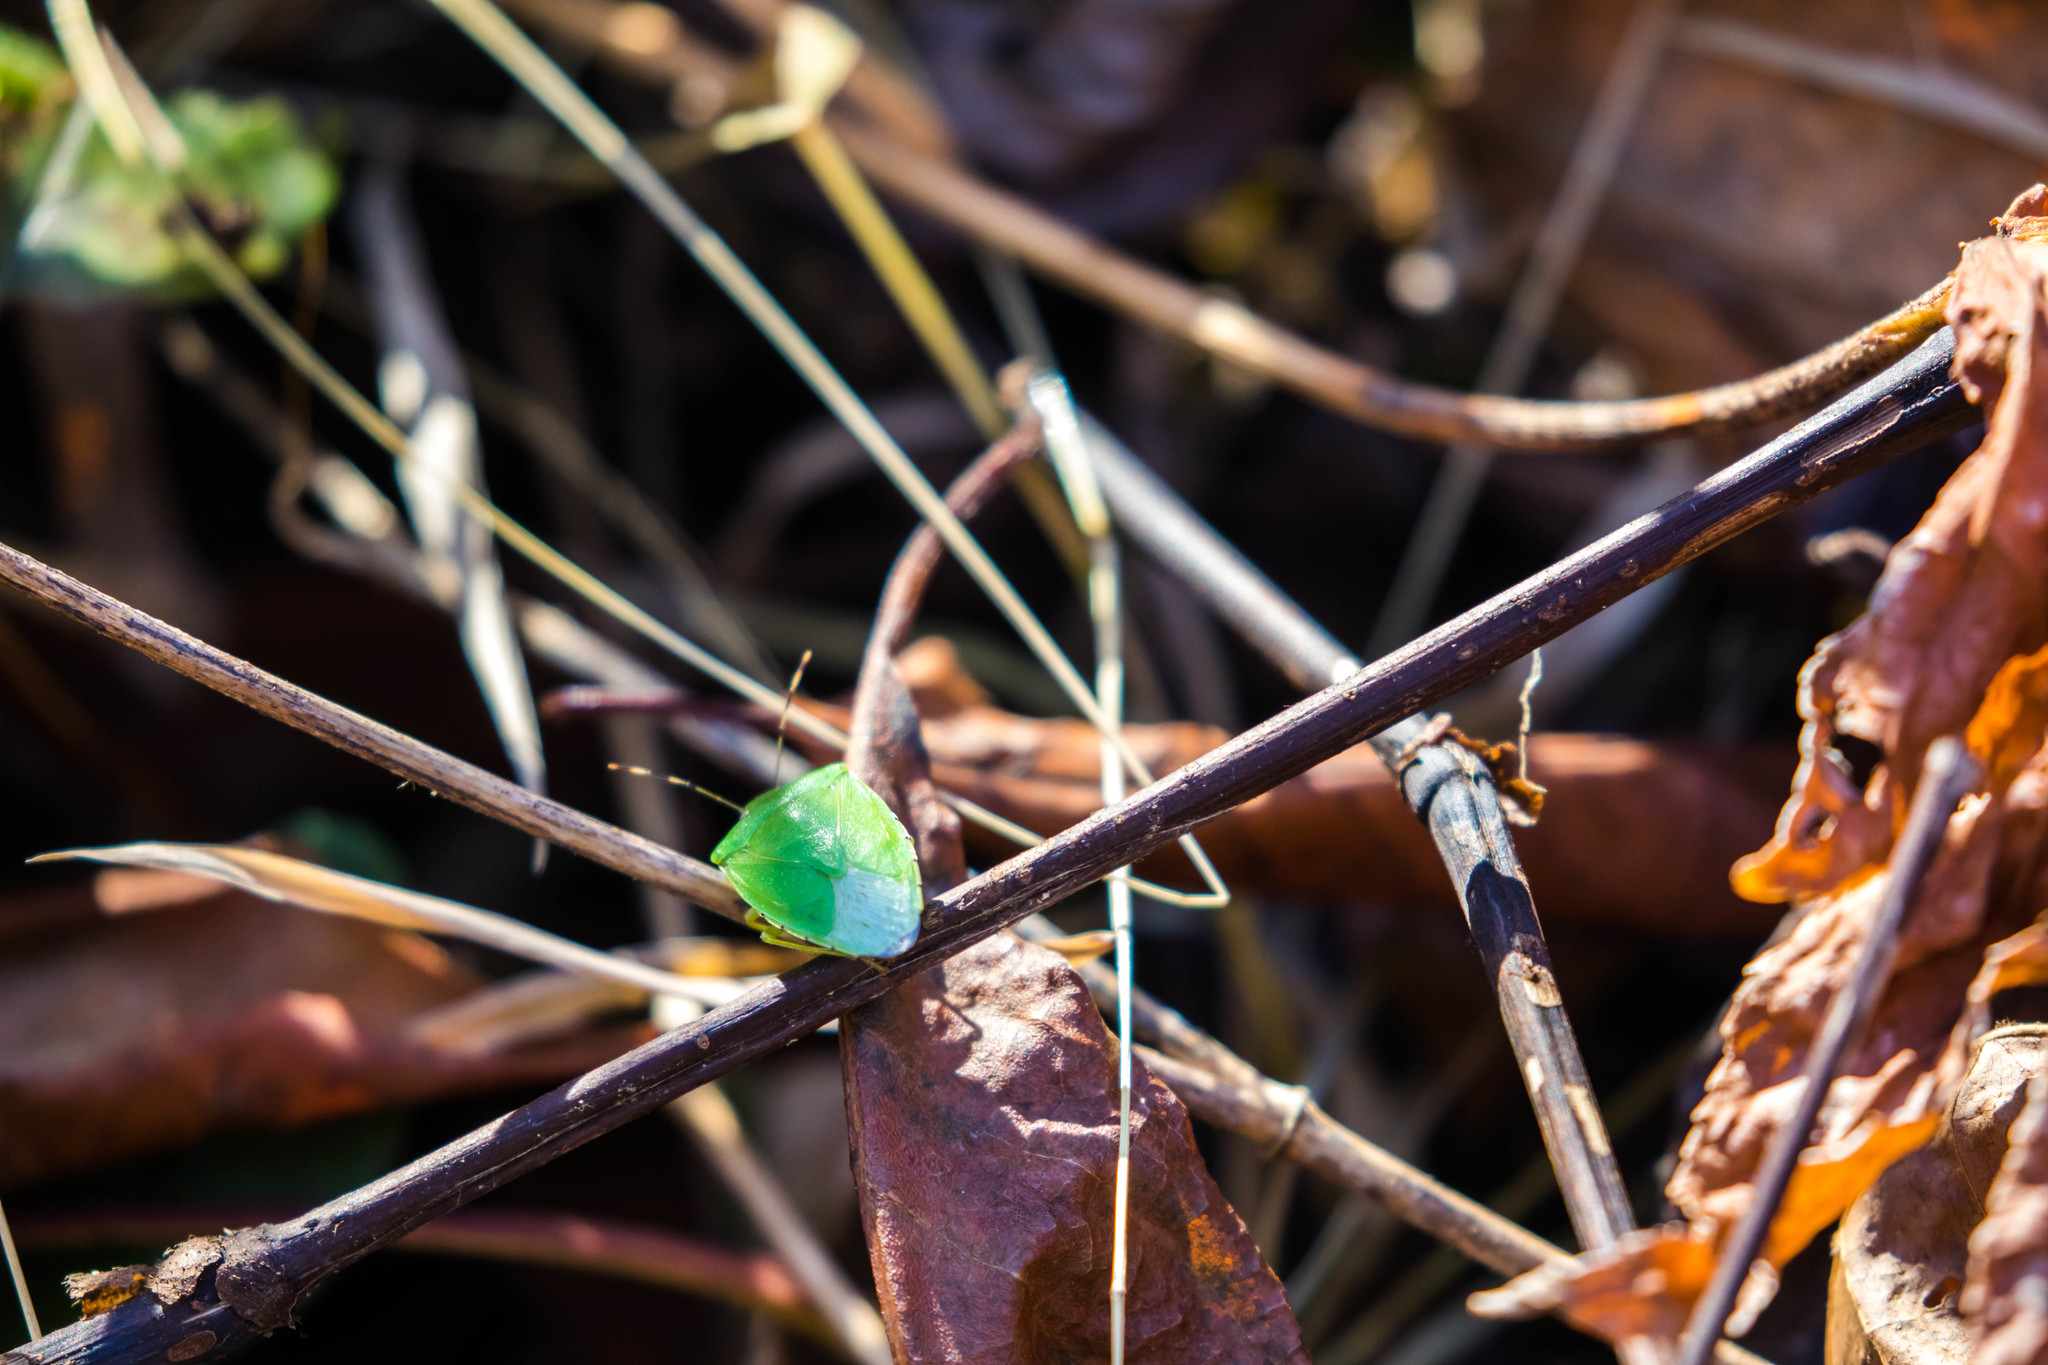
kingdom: Animalia
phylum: Arthropoda
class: Insecta
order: Hemiptera
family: Pentatomidae
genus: Chinavia
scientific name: Chinavia hilaris
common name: Green stink bug
